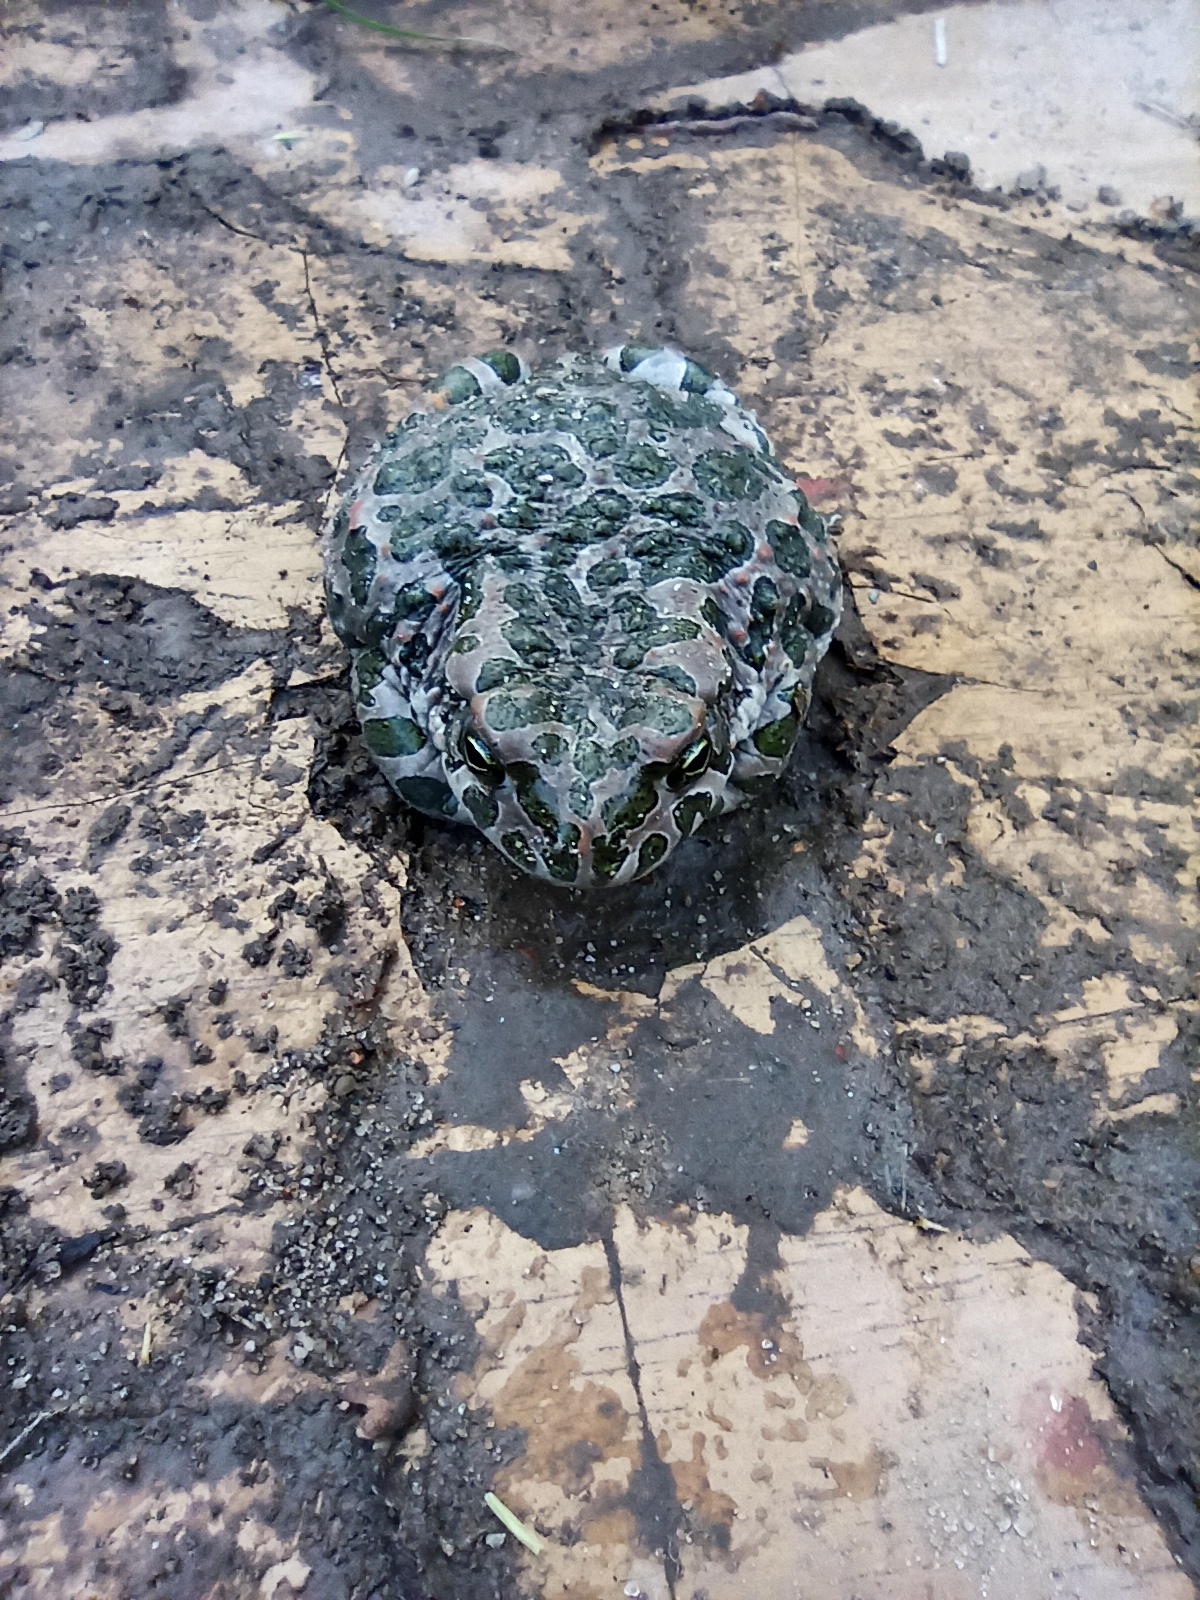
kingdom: Animalia
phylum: Chordata
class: Amphibia
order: Anura
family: Bufonidae
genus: Bufotes
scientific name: Bufotes viridis
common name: European green toad
